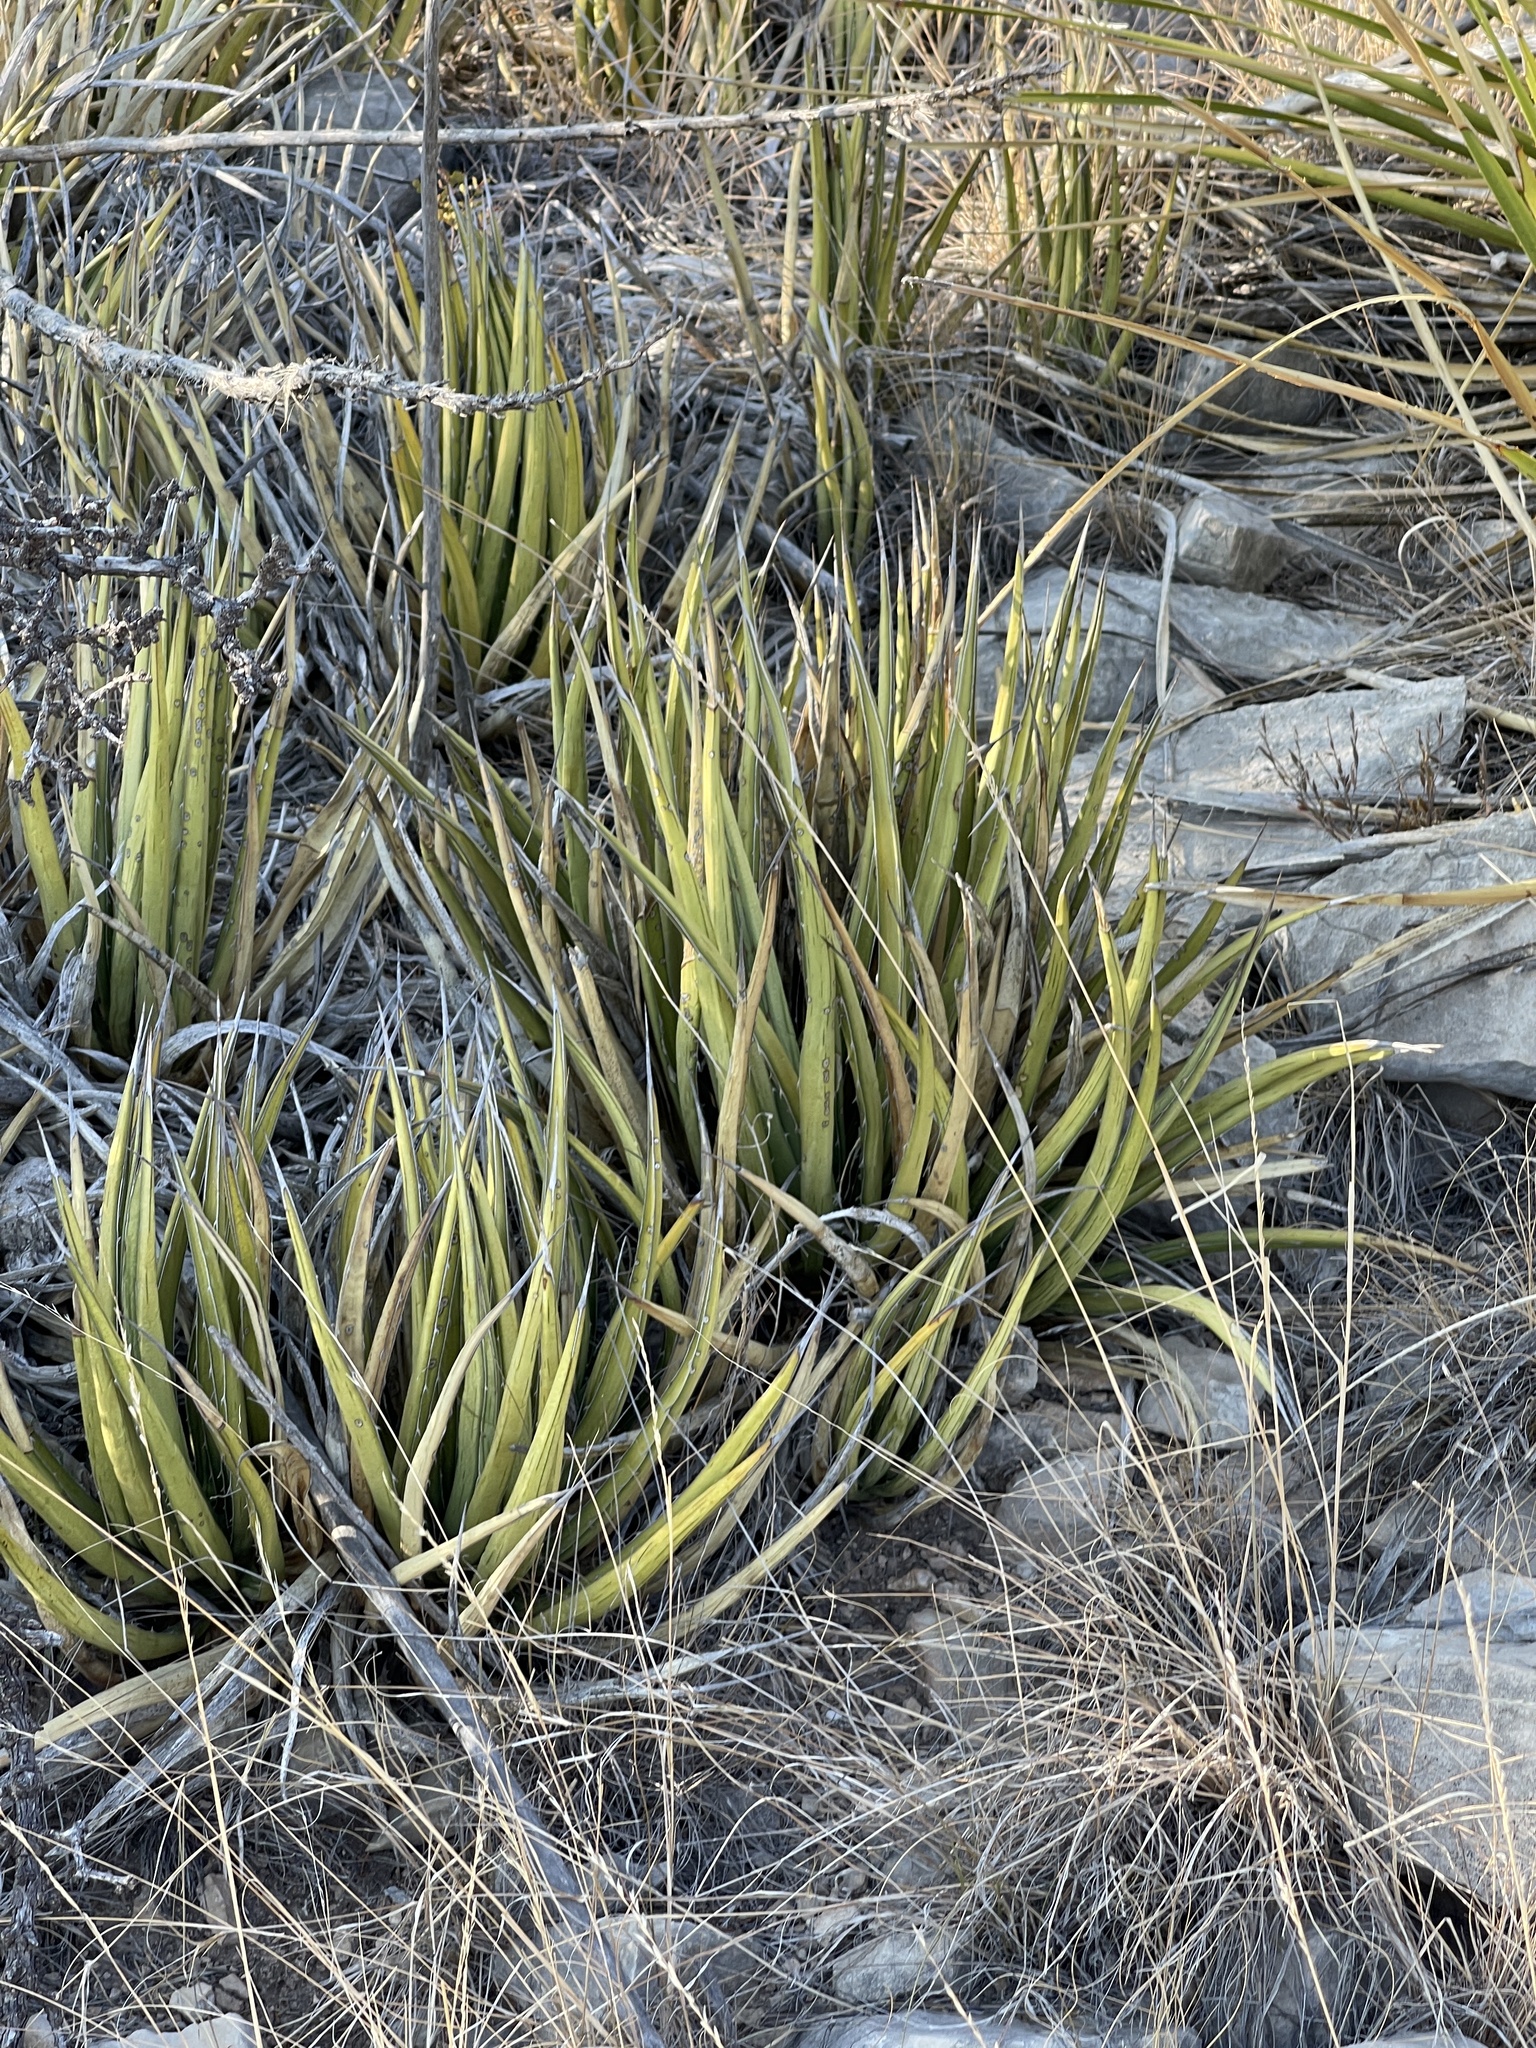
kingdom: Plantae
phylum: Tracheophyta
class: Liliopsida
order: Asparagales
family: Asparagaceae
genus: Agave
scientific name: Agave lechuguilla
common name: Lecheguilla agave
